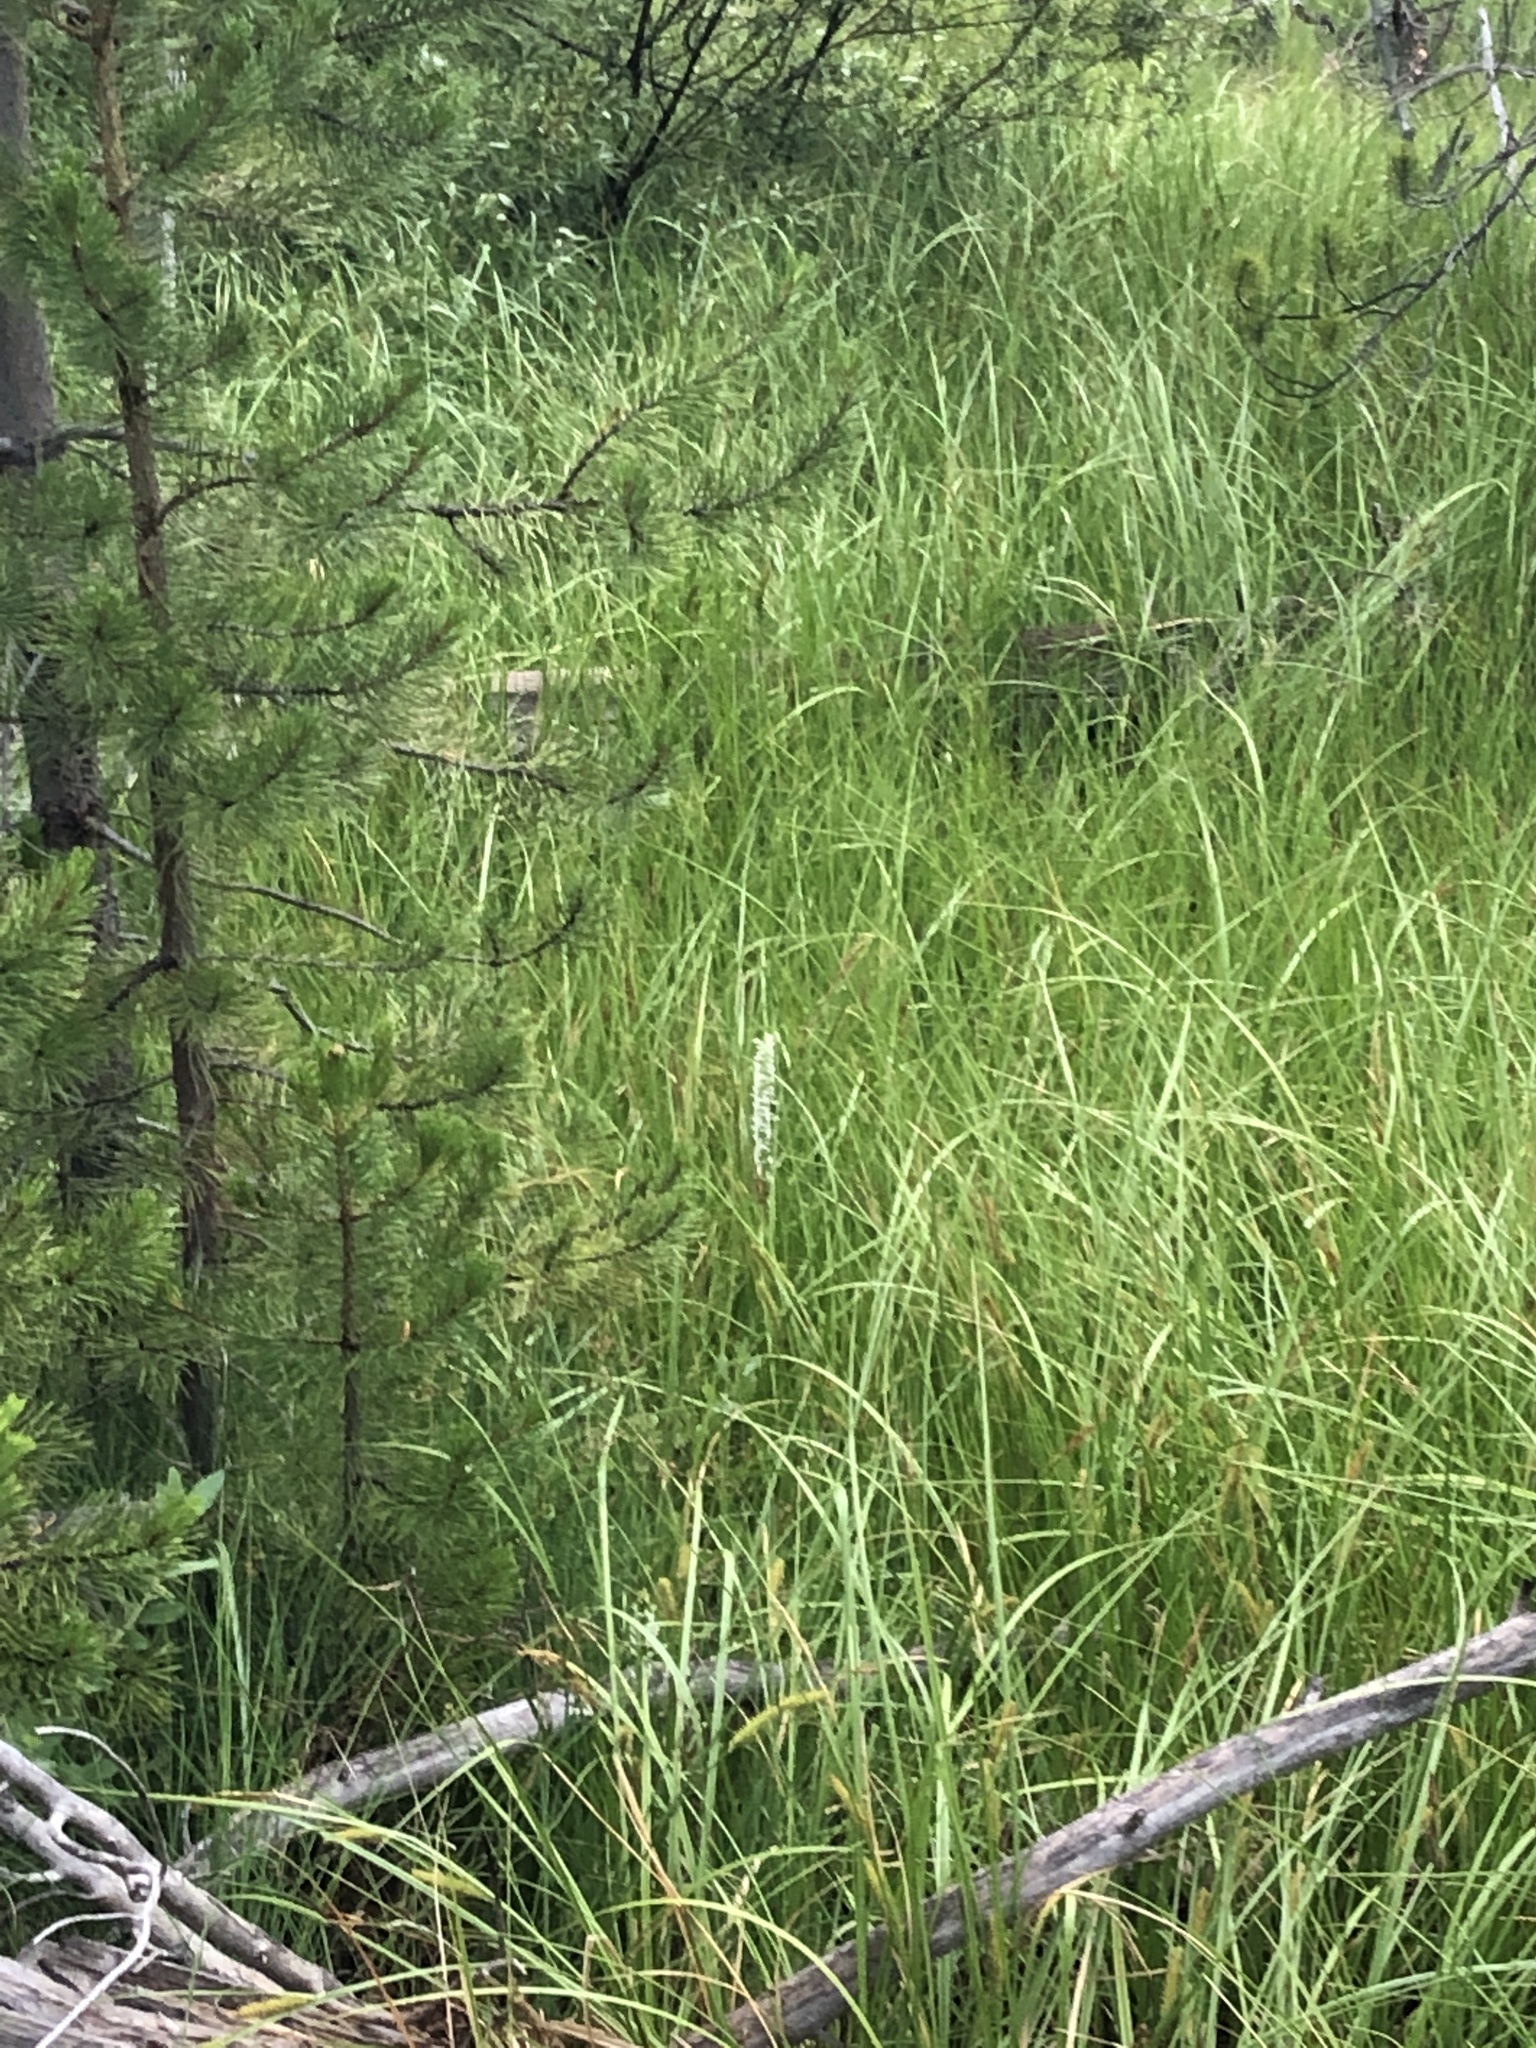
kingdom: Plantae
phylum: Tracheophyta
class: Liliopsida
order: Asparagales
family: Orchidaceae
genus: Platanthera
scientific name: Platanthera dilatata
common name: Bog candles
